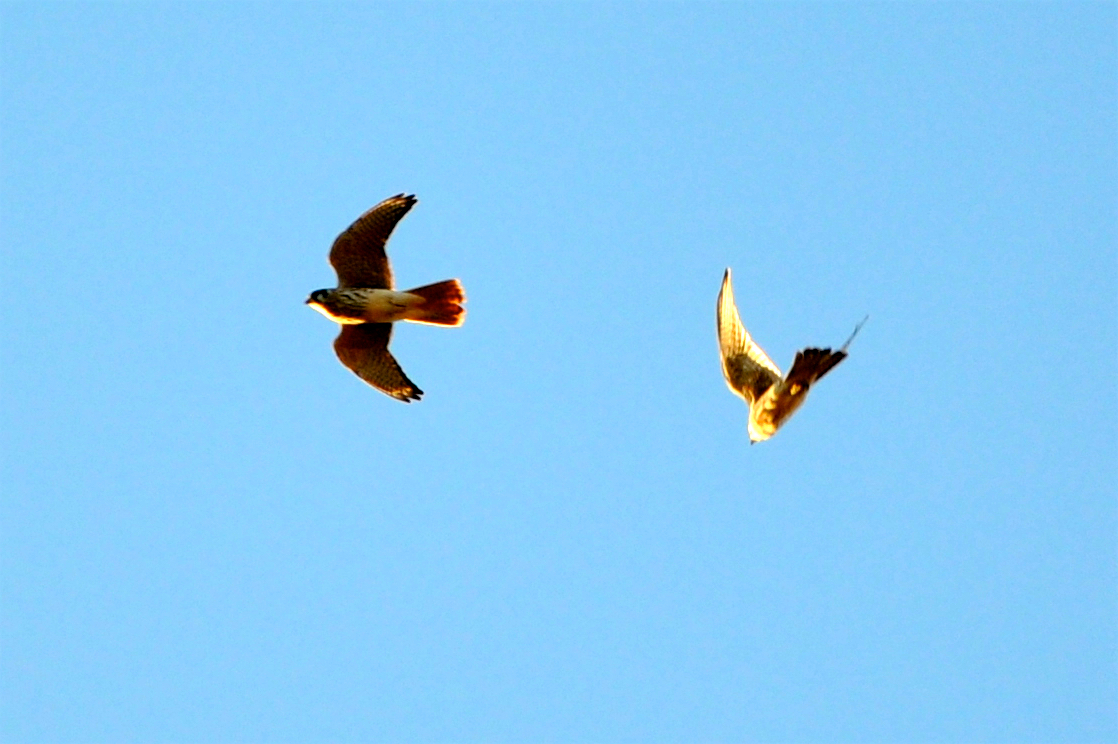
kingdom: Animalia
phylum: Chordata
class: Aves
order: Falconiformes
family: Falconidae
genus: Falco
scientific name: Falco sparverius
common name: American kestrel
